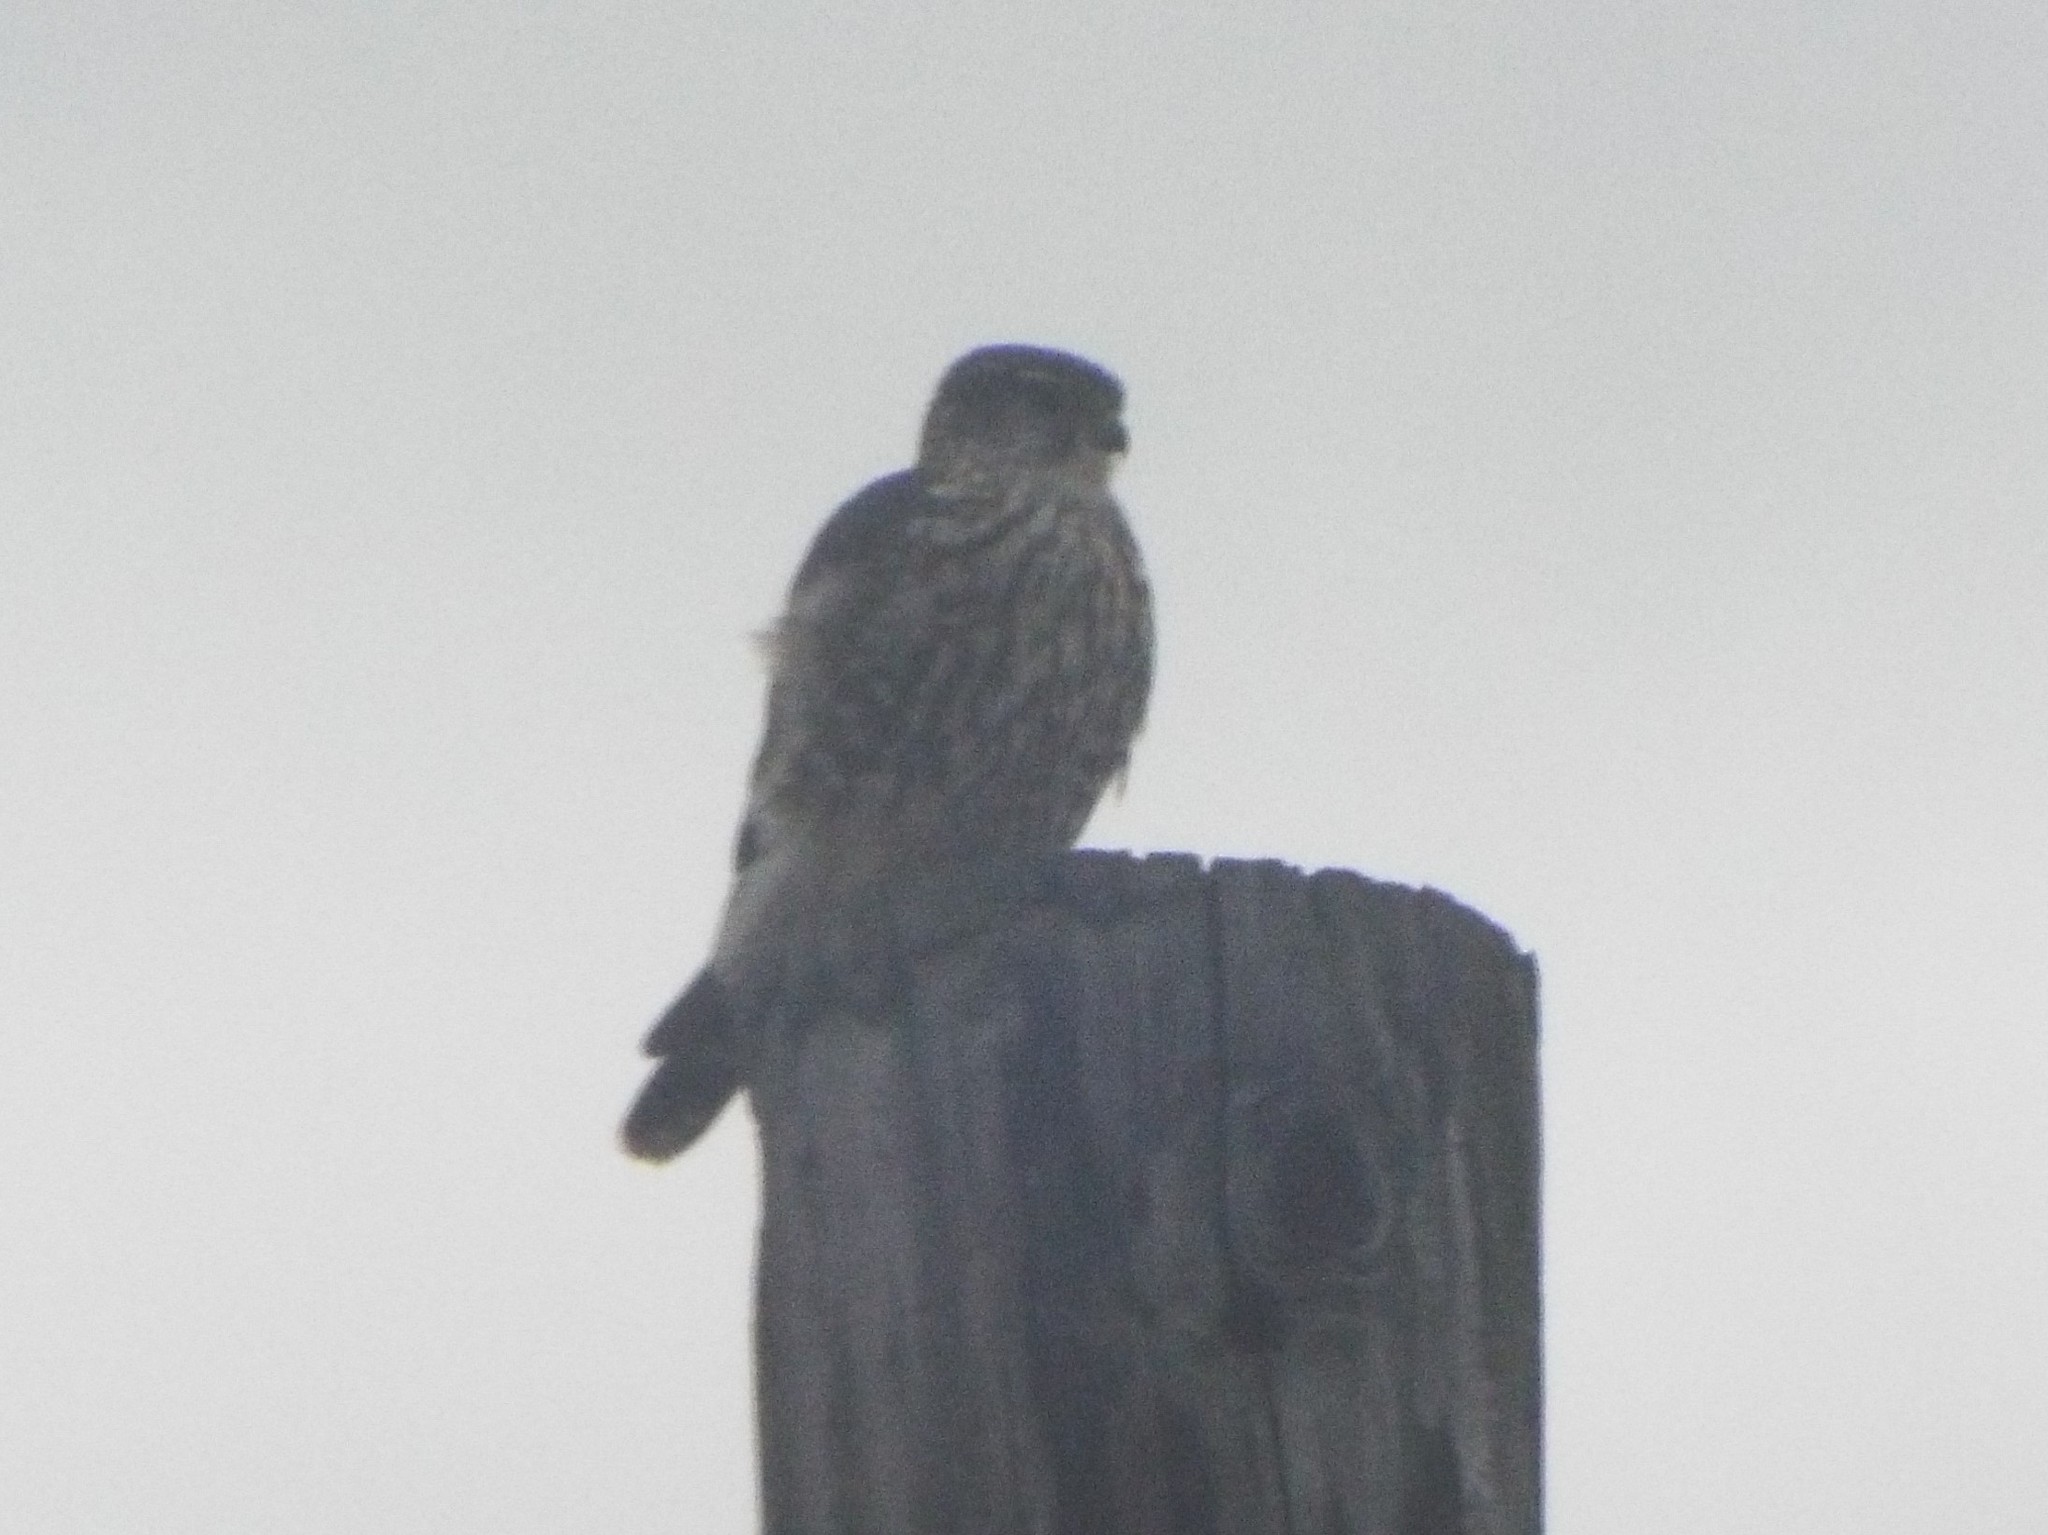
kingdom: Animalia
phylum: Chordata
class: Aves
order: Falconiformes
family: Falconidae
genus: Falco
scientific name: Falco columbarius
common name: Merlin
